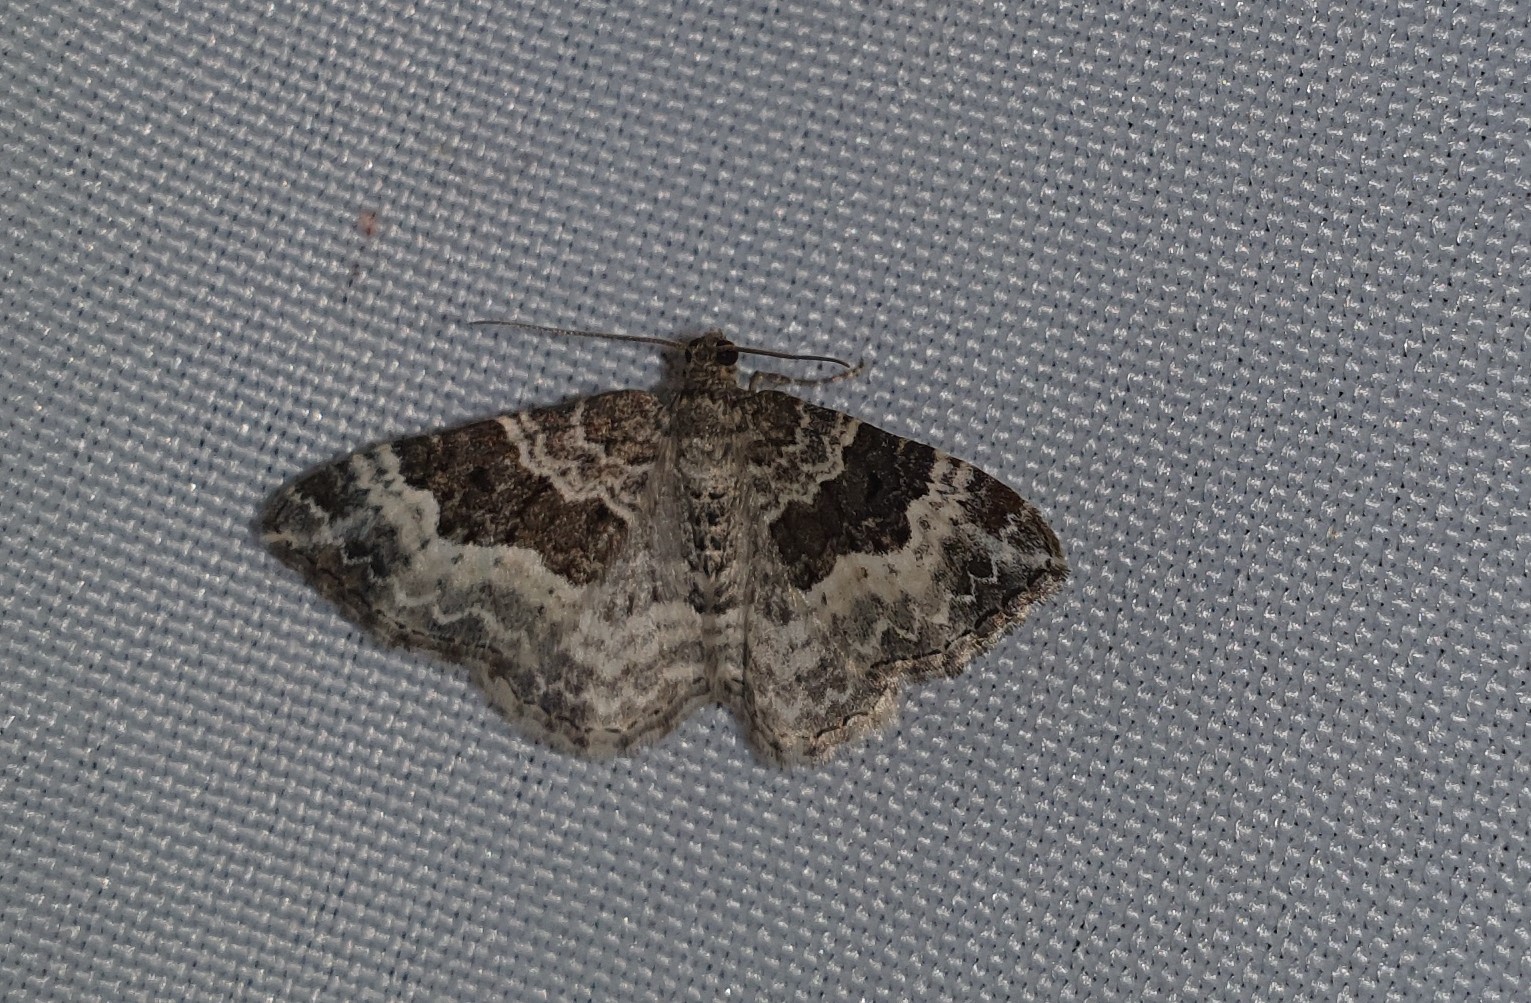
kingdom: Animalia
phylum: Arthropoda
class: Insecta
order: Lepidoptera
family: Geometridae
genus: Epirrhoe
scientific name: Epirrhoe alternata
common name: Common carpet
